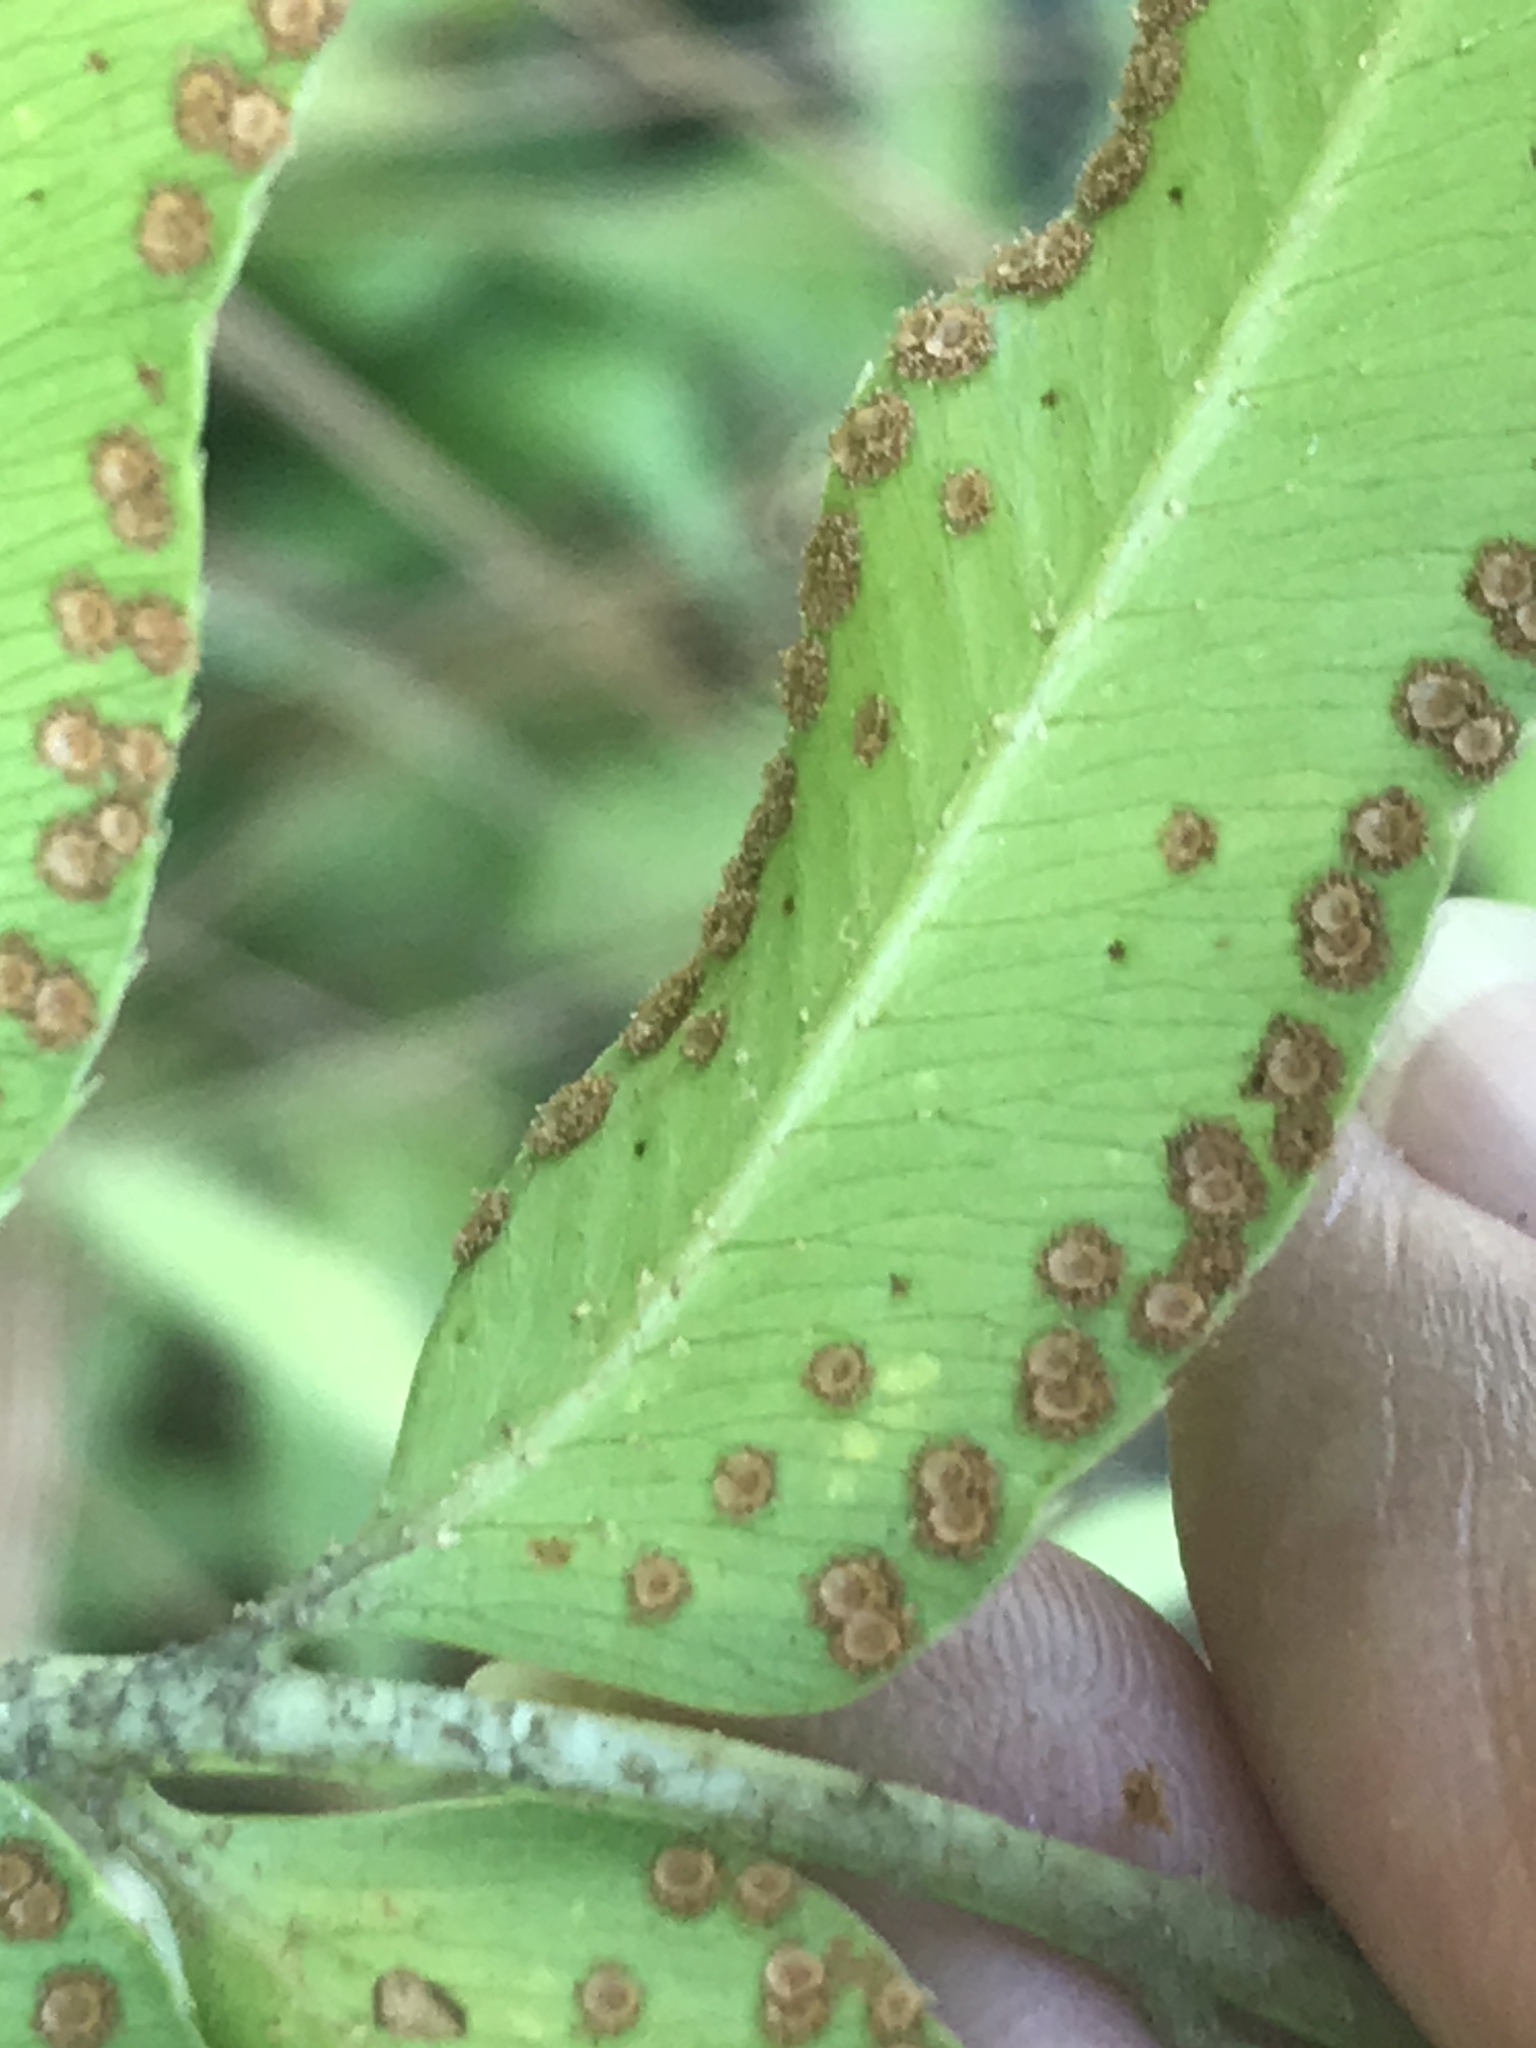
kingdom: Plantae
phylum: Tracheophyta
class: Polypodiopsida
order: Polypodiales
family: Dryopteridaceae
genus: Phanerophlebia
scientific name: Phanerophlebia umbonata
